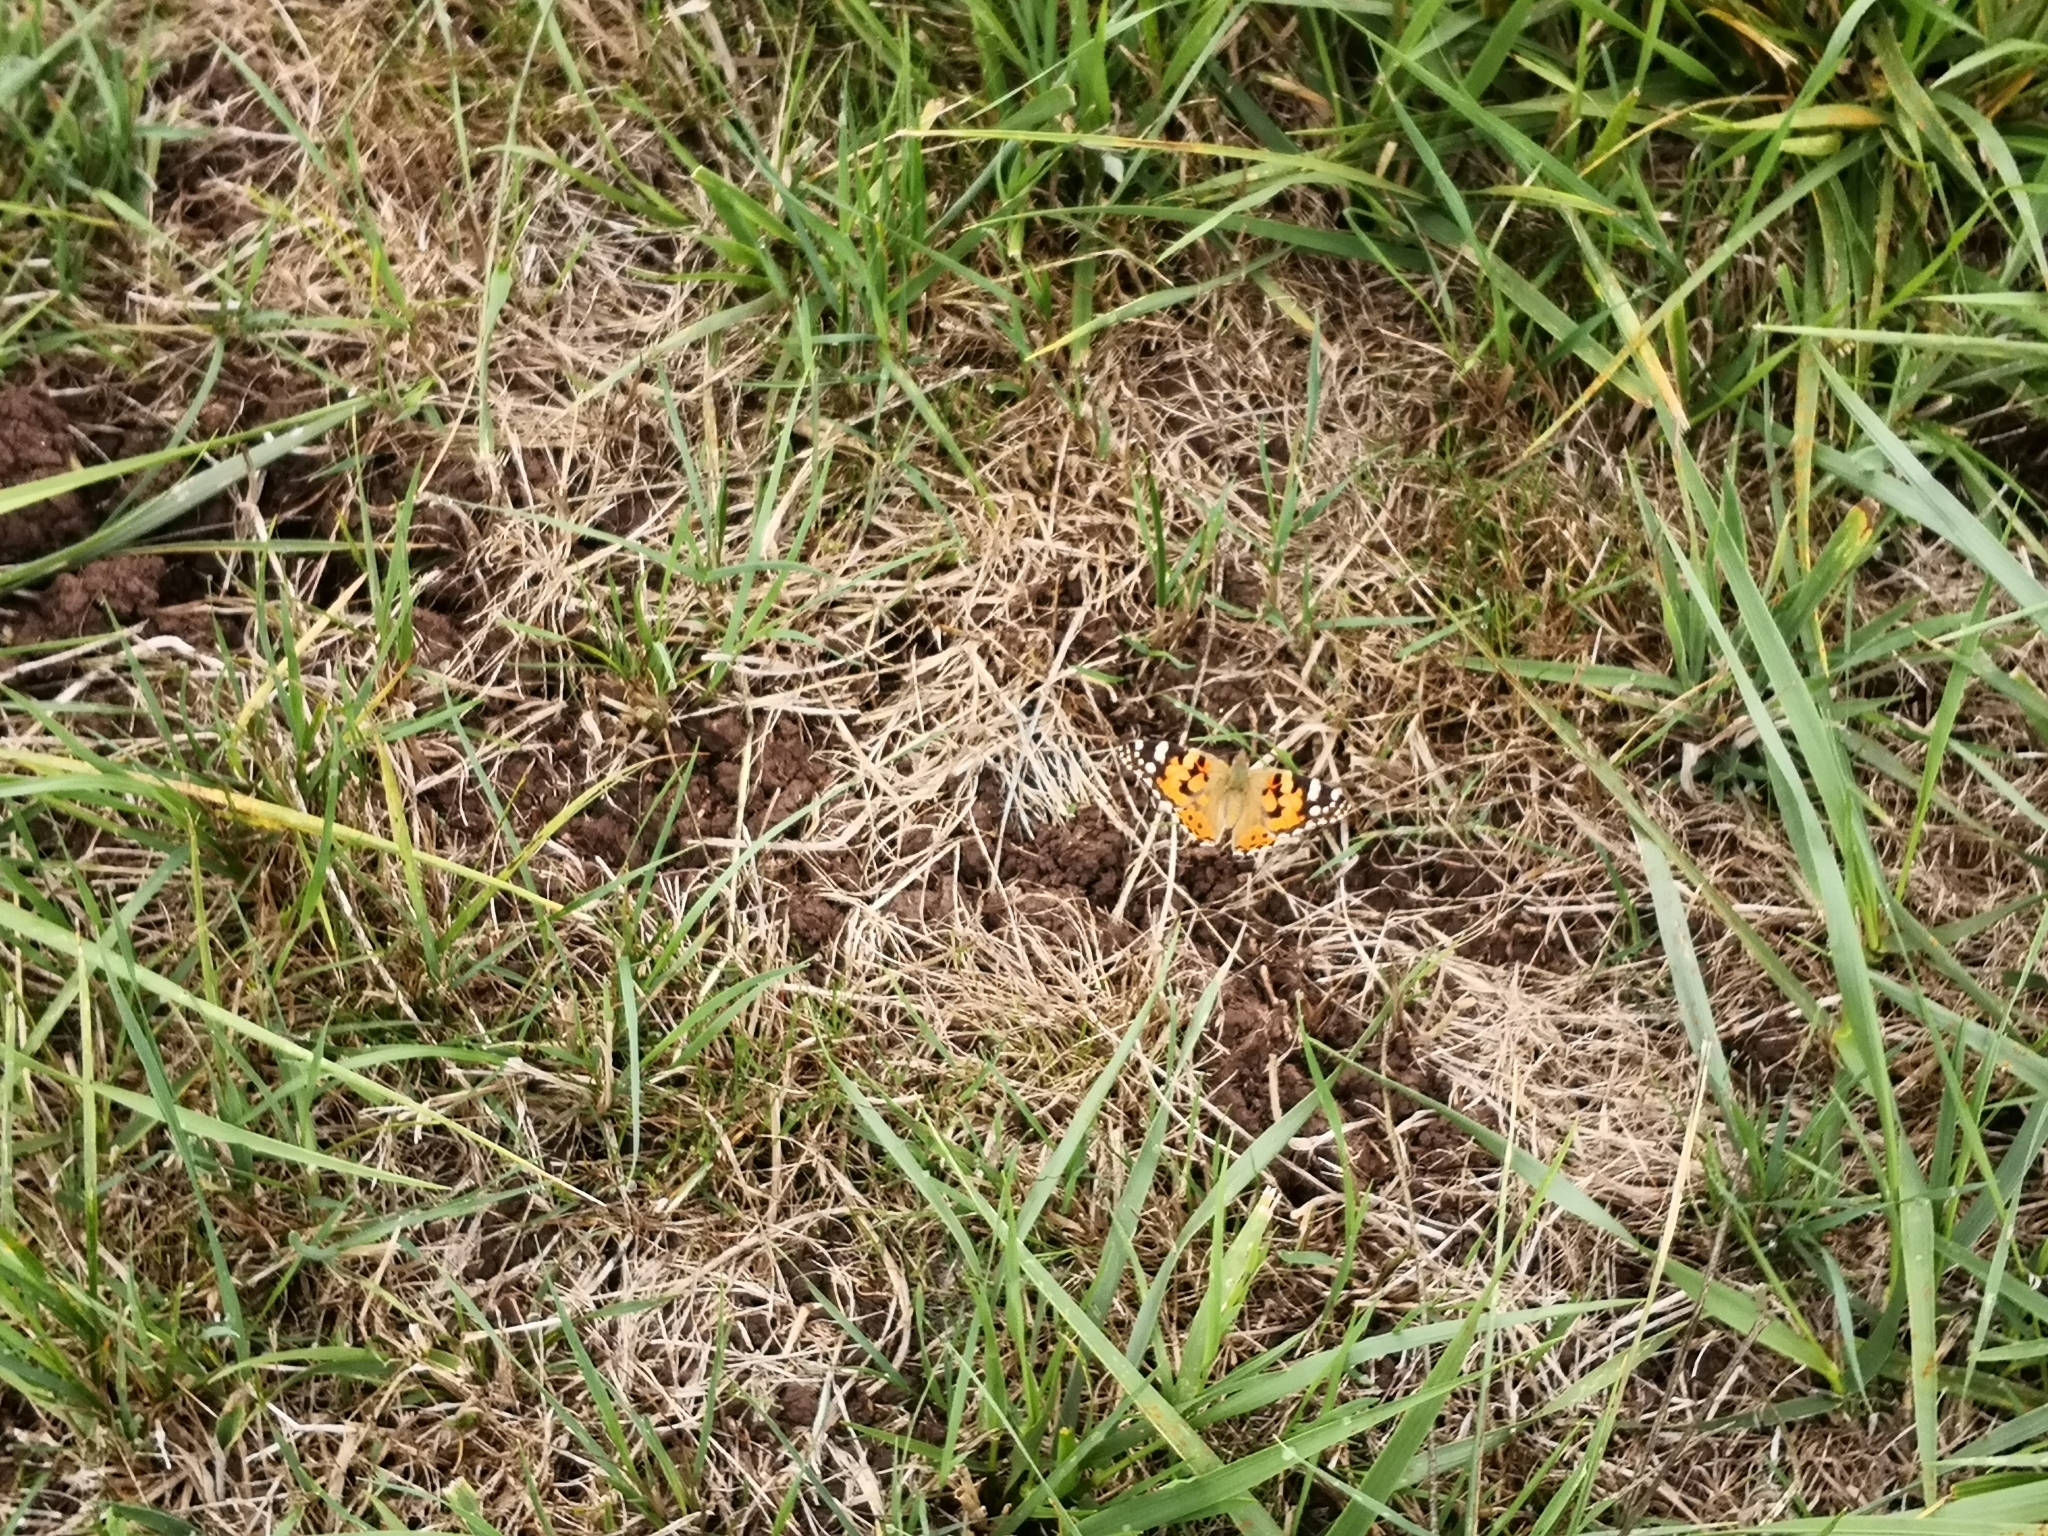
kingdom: Animalia
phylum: Arthropoda
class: Insecta
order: Lepidoptera
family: Nymphalidae
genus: Vanessa
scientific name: Vanessa cardui
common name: Painted lady
